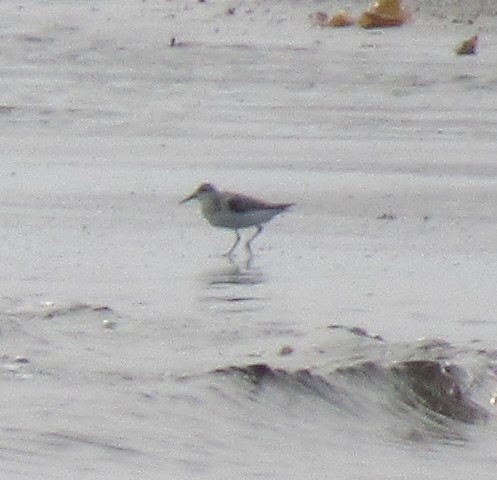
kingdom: Animalia
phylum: Chordata
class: Aves
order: Charadriiformes
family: Scolopacidae
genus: Calidris
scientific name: Calidris alba
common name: Sanderling
